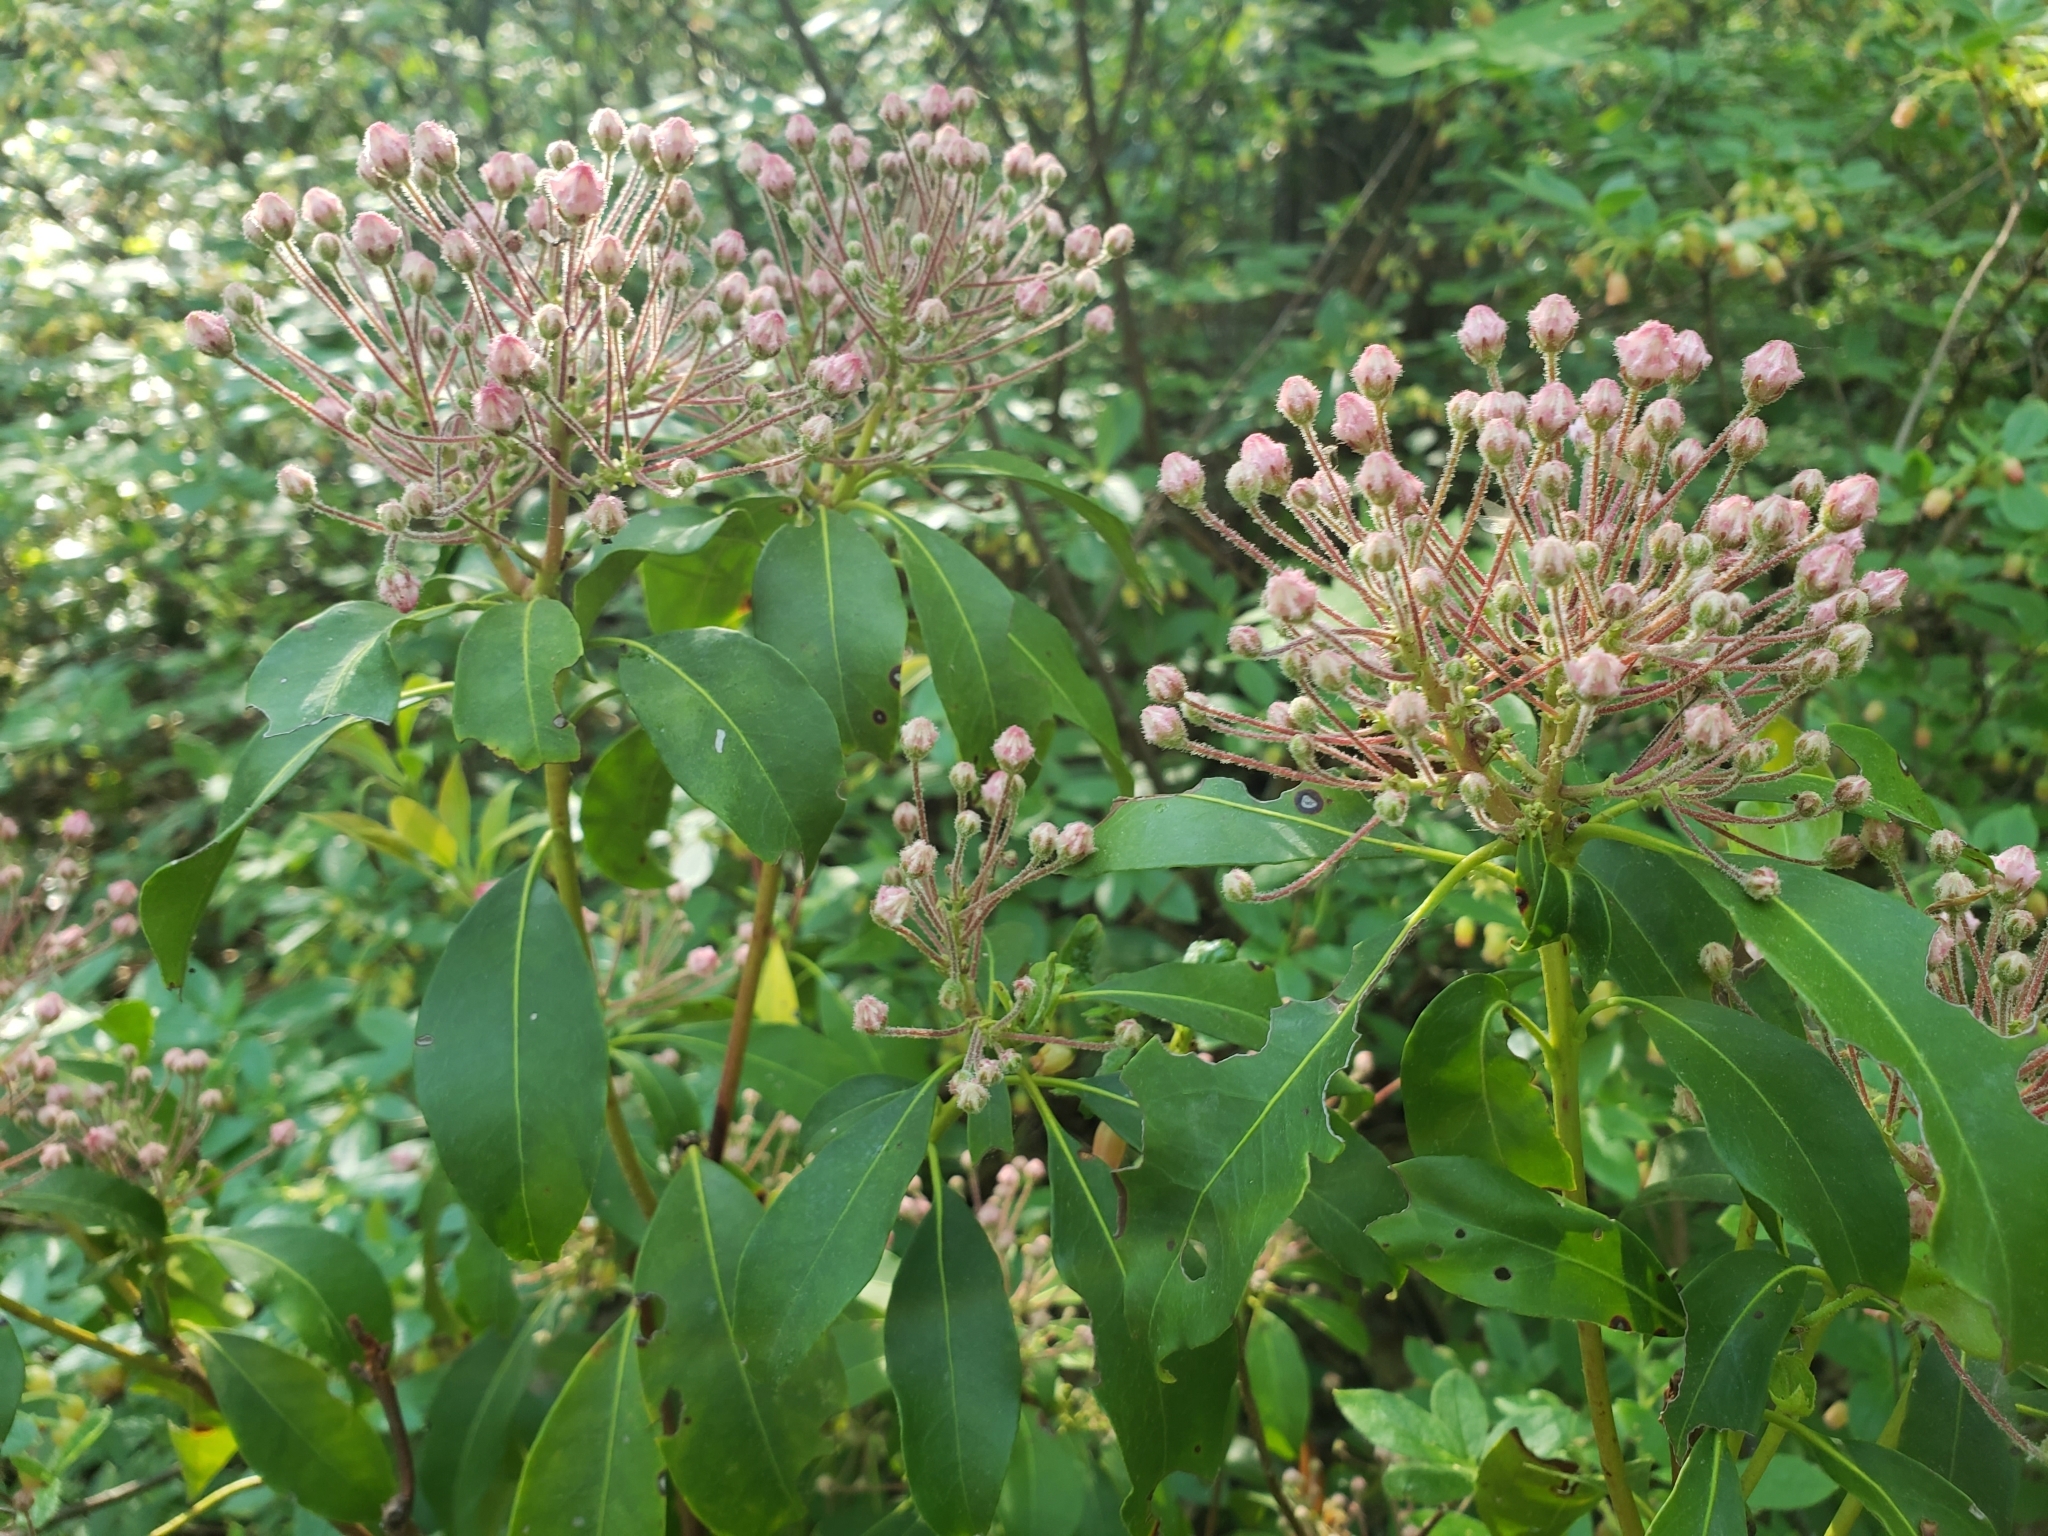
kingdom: Plantae
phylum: Tracheophyta
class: Magnoliopsida
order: Ericales
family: Ericaceae
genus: Kalmia
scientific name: Kalmia latifolia
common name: Mountain-laurel
